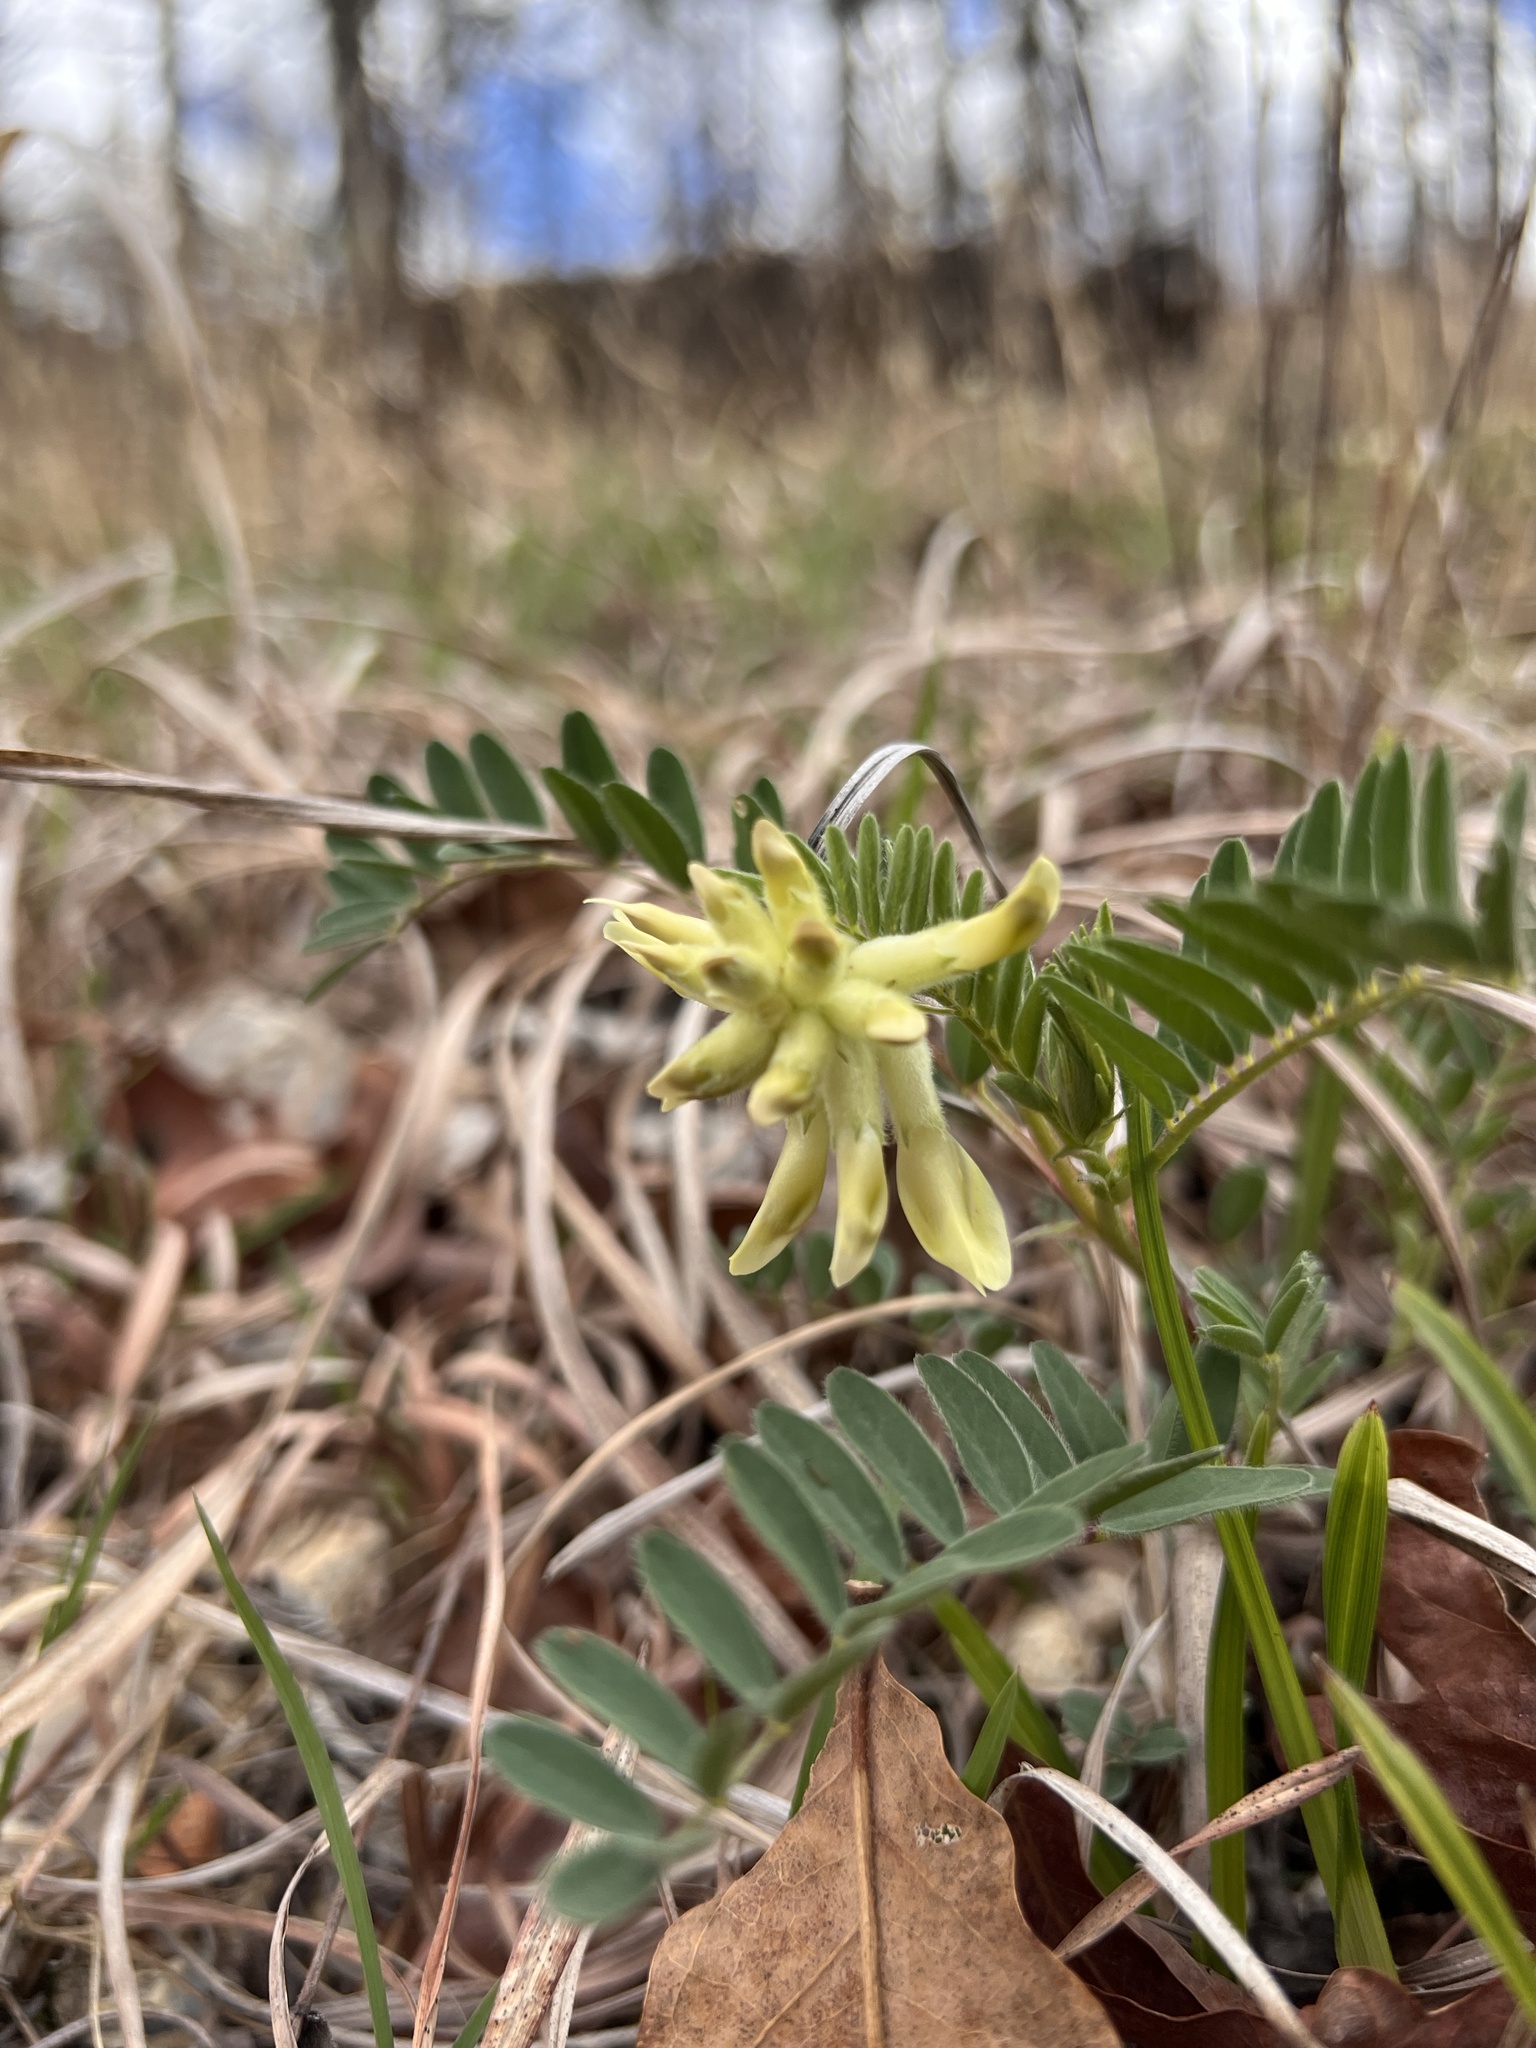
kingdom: Plantae
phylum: Tracheophyta
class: Magnoliopsida
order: Fabales
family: Fabaceae
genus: Astragalus
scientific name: Astragalus crassicarpus
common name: Ground-plum milk-vetch
